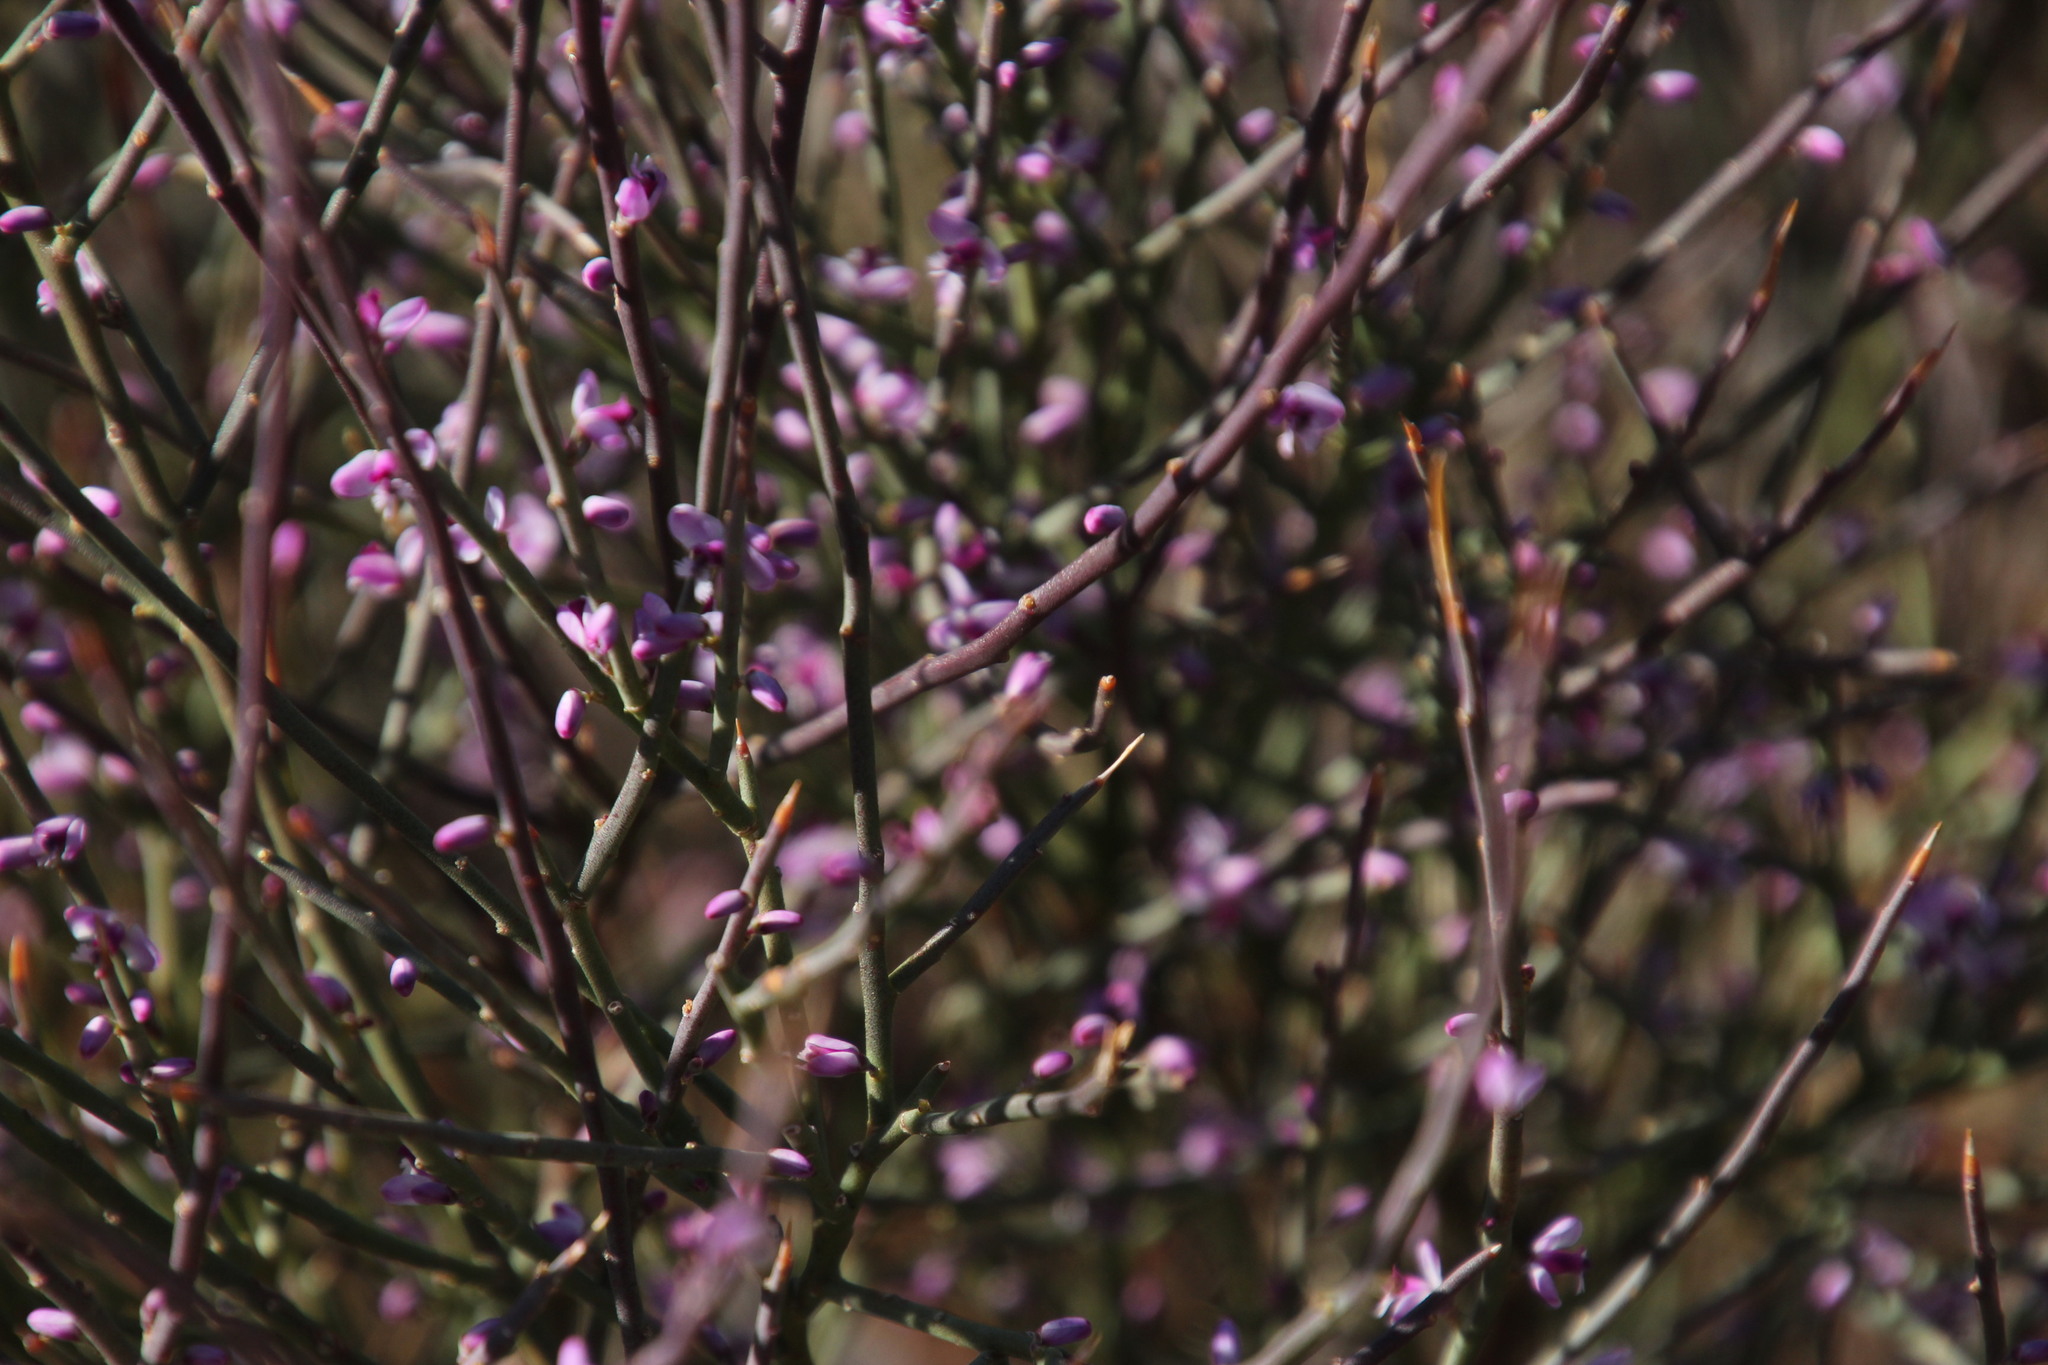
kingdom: Plantae
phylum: Tracheophyta
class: Magnoliopsida
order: Fabales
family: Polygalaceae
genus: Muraltia
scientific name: Muraltia spinosa
